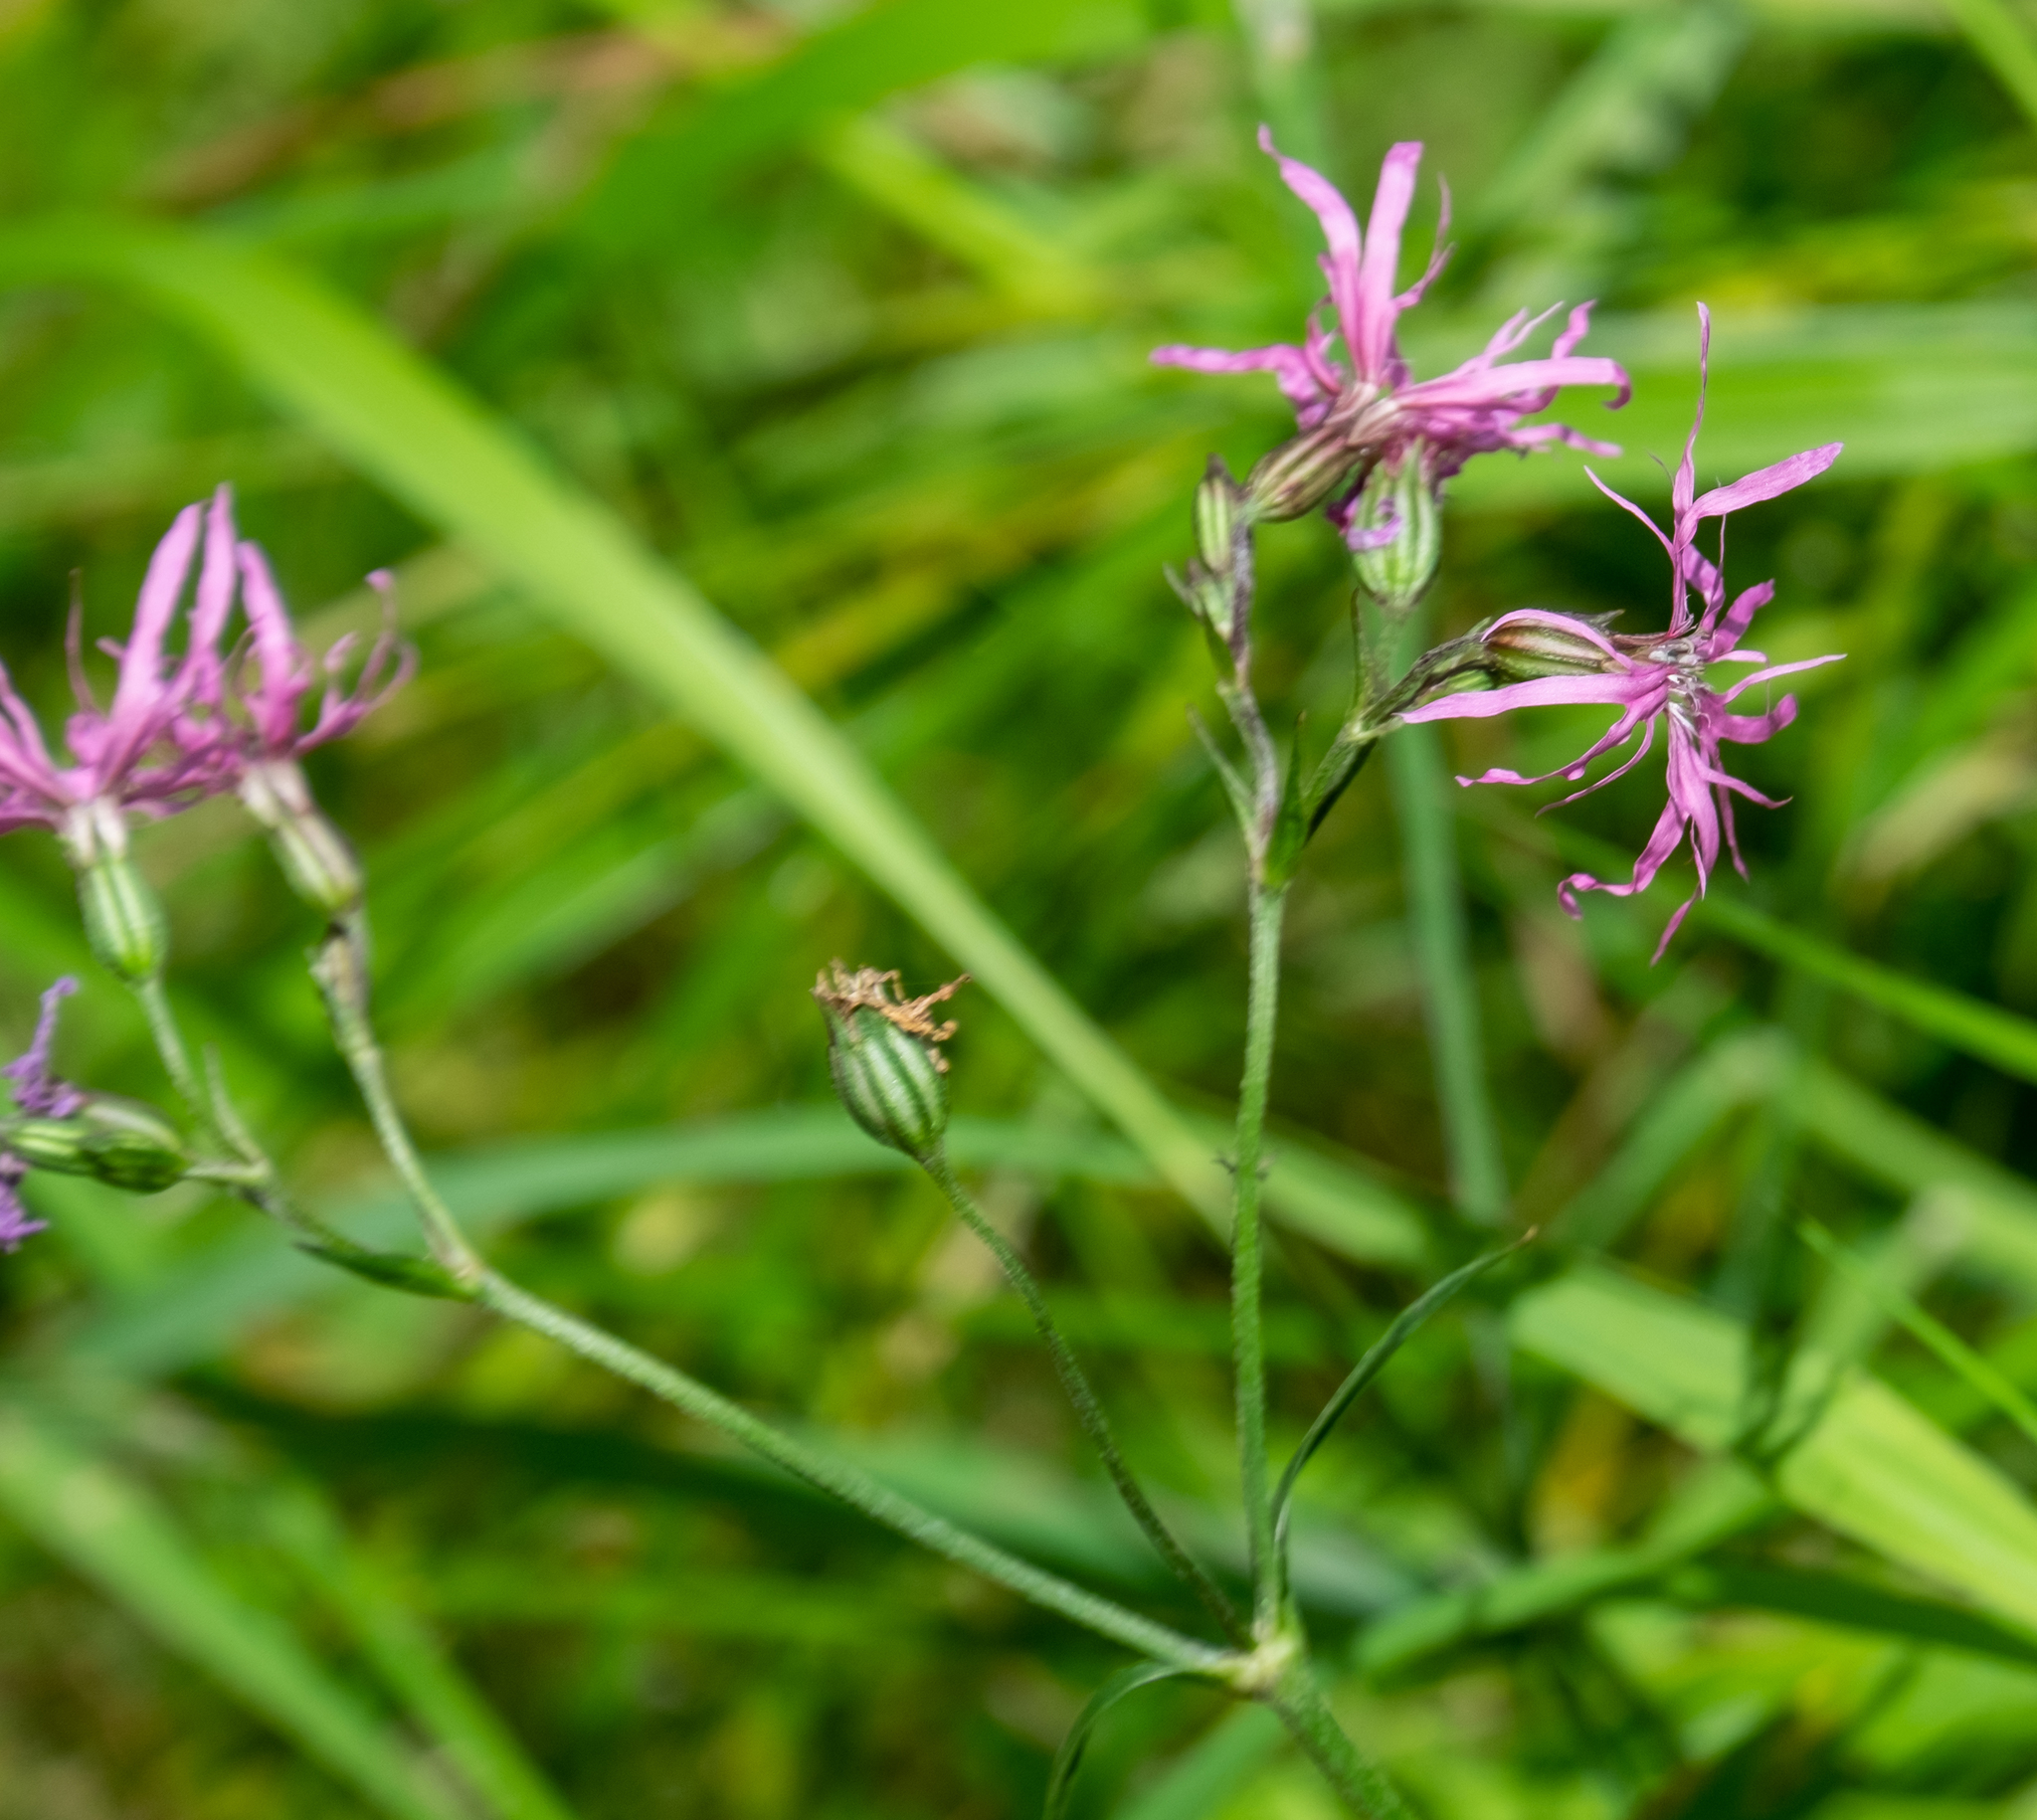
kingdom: Plantae
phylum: Tracheophyta
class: Magnoliopsida
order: Caryophyllales
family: Caryophyllaceae
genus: Silene
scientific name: Silene flos-cuculi
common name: Ragged-robin
